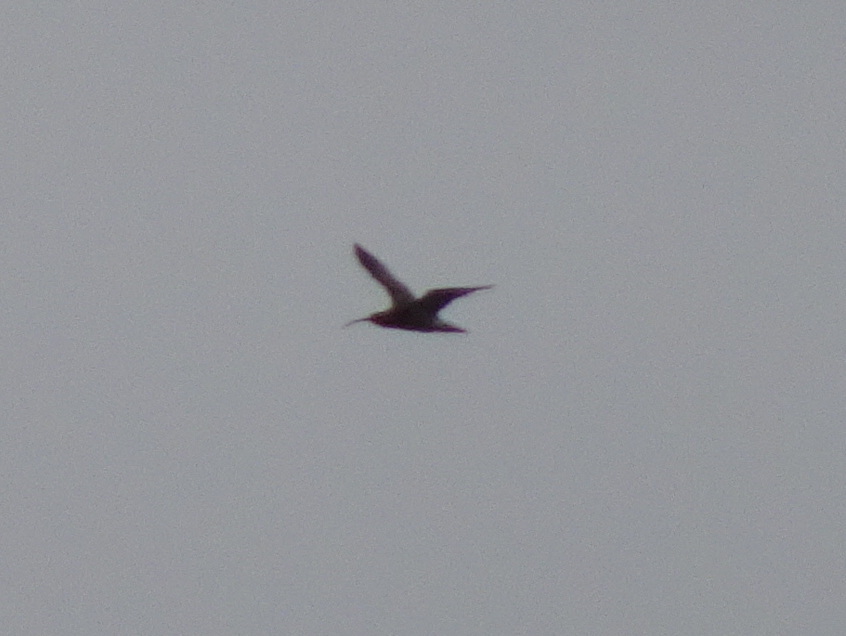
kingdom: Animalia
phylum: Chordata
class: Aves
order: Charadriiformes
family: Scolopacidae
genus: Numenius
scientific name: Numenius
